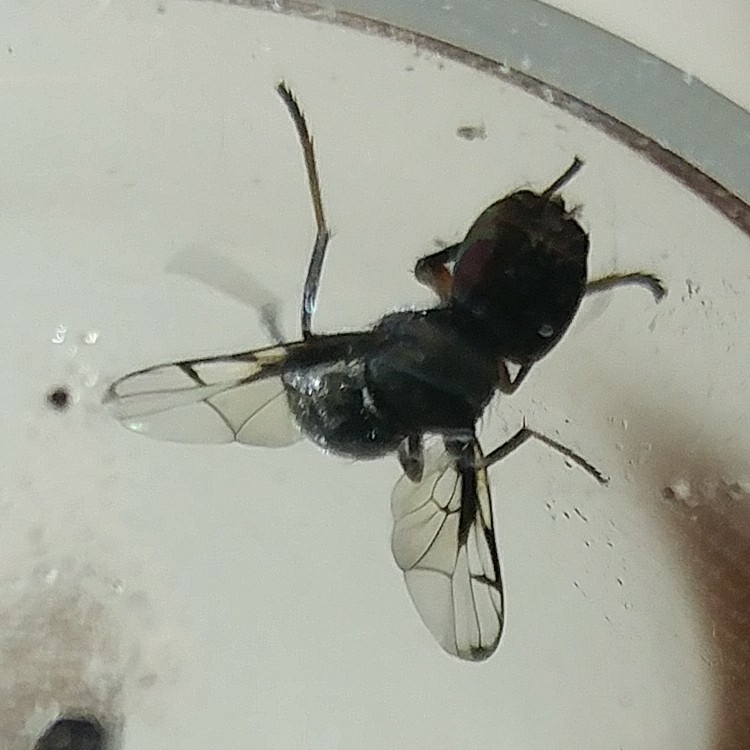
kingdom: Animalia
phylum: Arthropoda
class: Insecta
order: Diptera
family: Platystomatidae
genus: Pogonortalis
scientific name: Pogonortalis doclea
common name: Boatman fly
